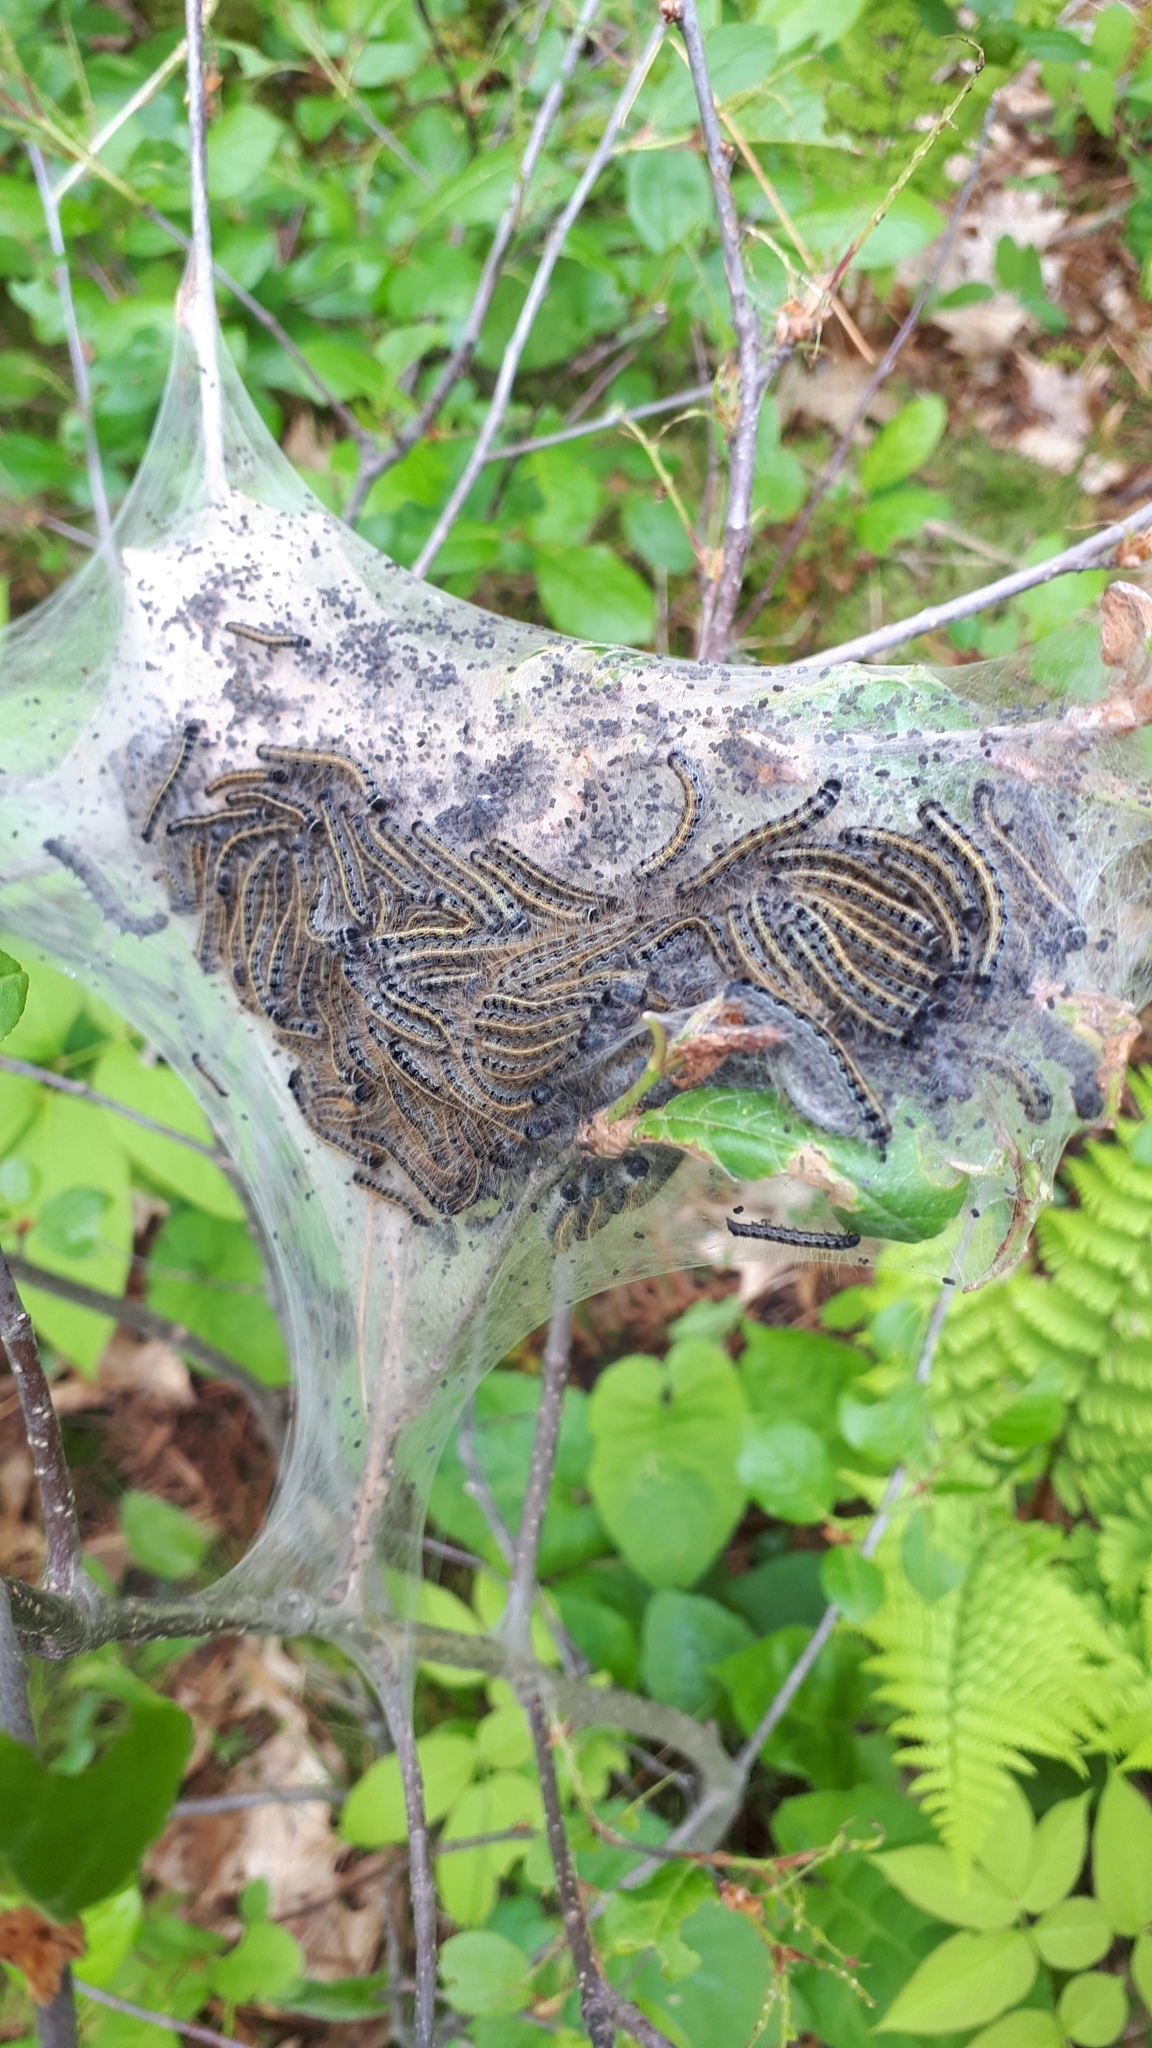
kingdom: Animalia
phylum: Arthropoda
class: Insecta
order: Lepidoptera
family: Lasiocampidae
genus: Malacosoma
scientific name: Malacosoma americana
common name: Eastern tent caterpillar moth
